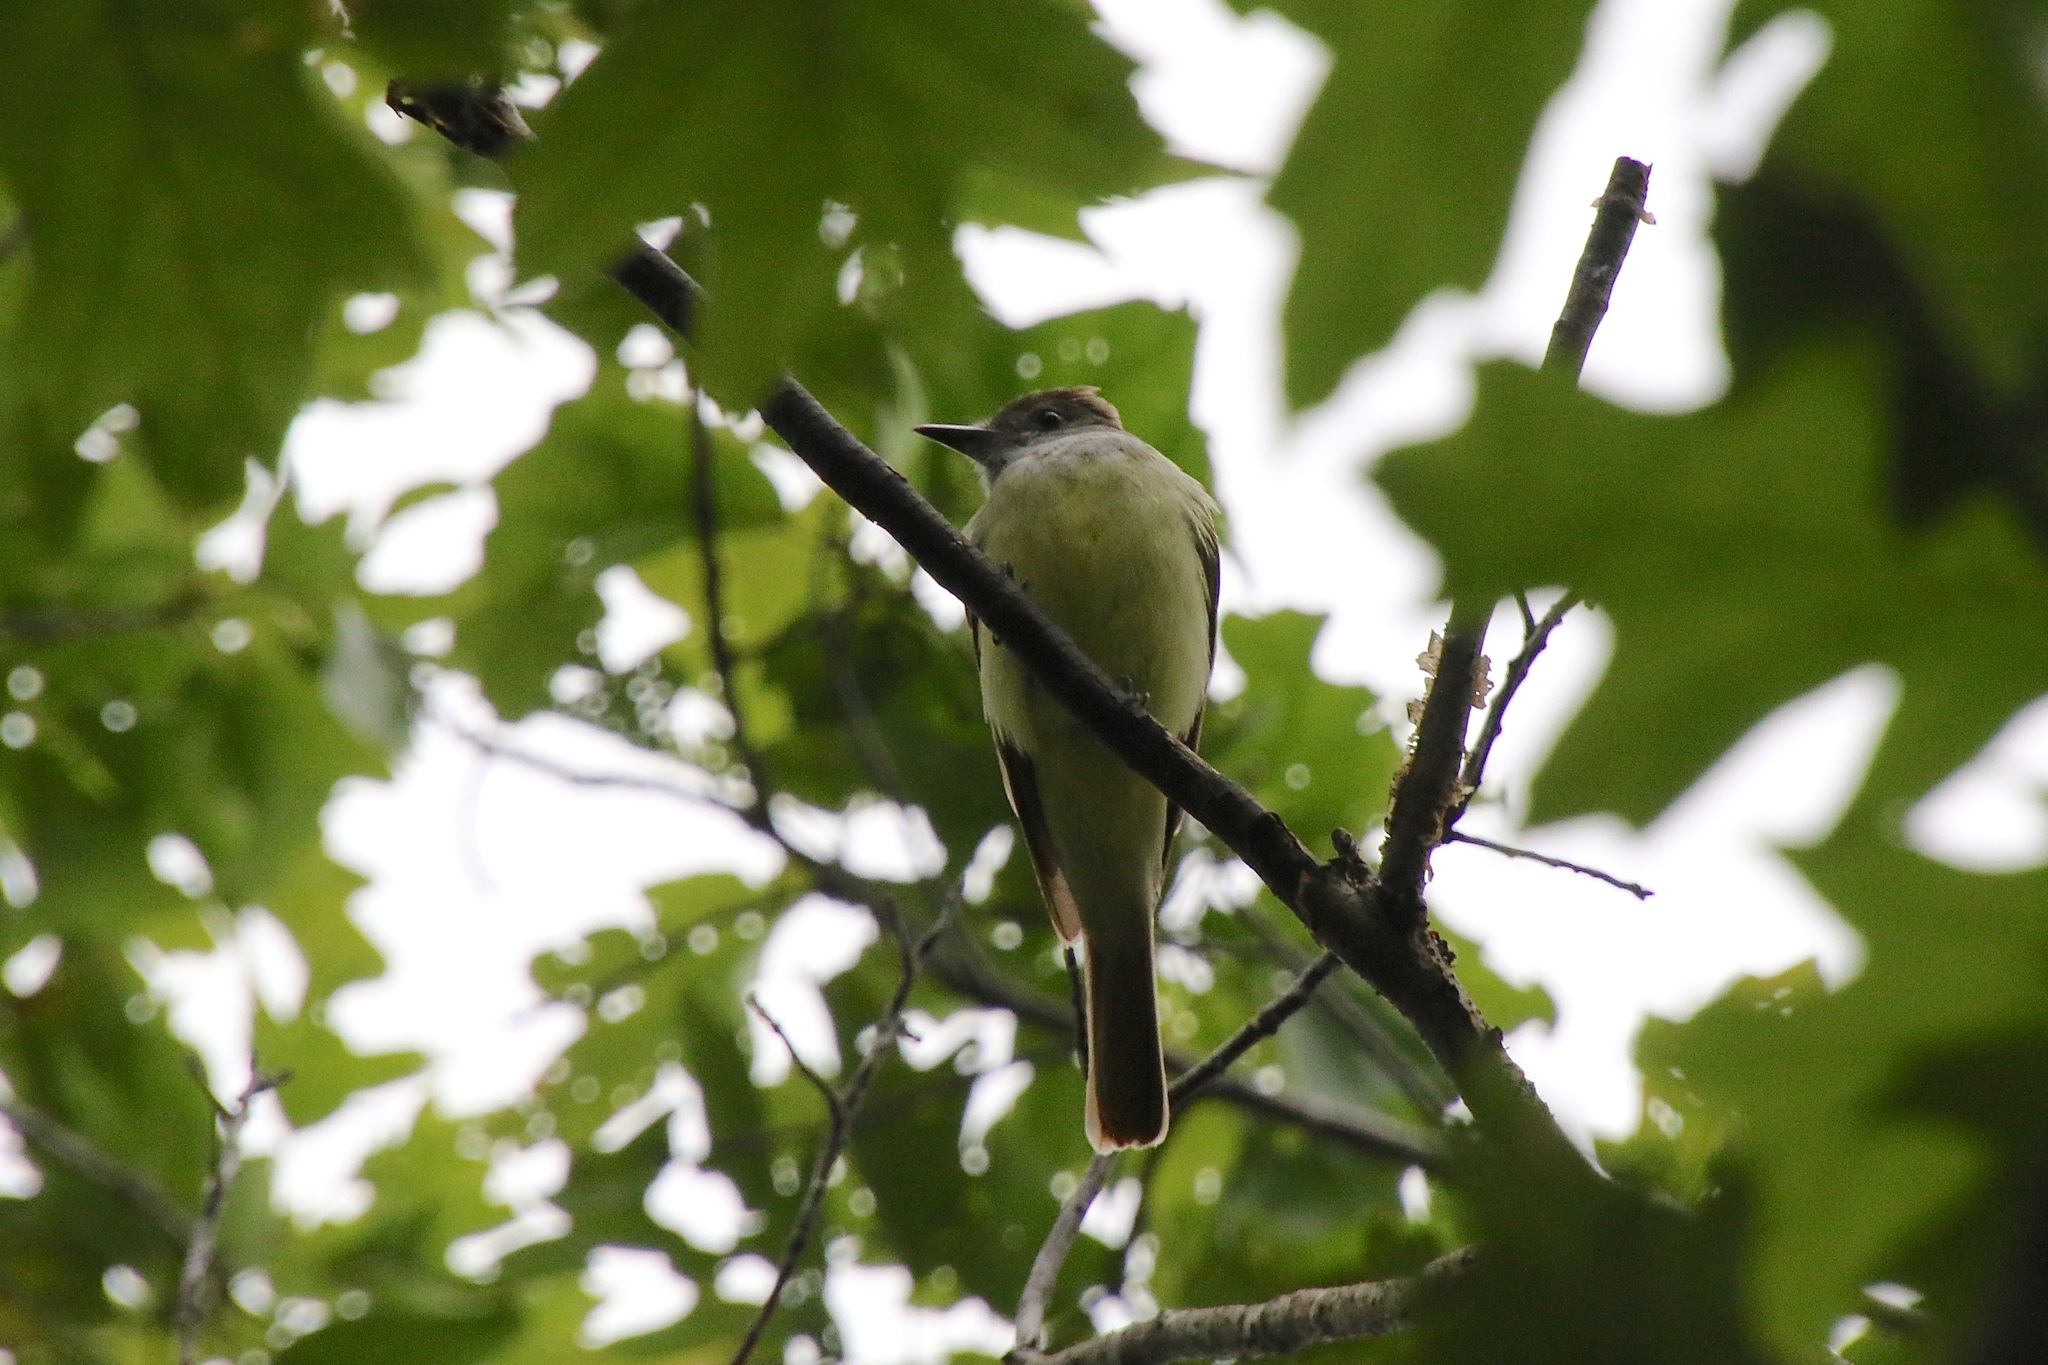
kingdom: Animalia
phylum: Chordata
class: Aves
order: Passeriformes
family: Tyrannidae
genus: Myiarchus
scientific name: Myiarchus crinitus
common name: Great crested flycatcher
